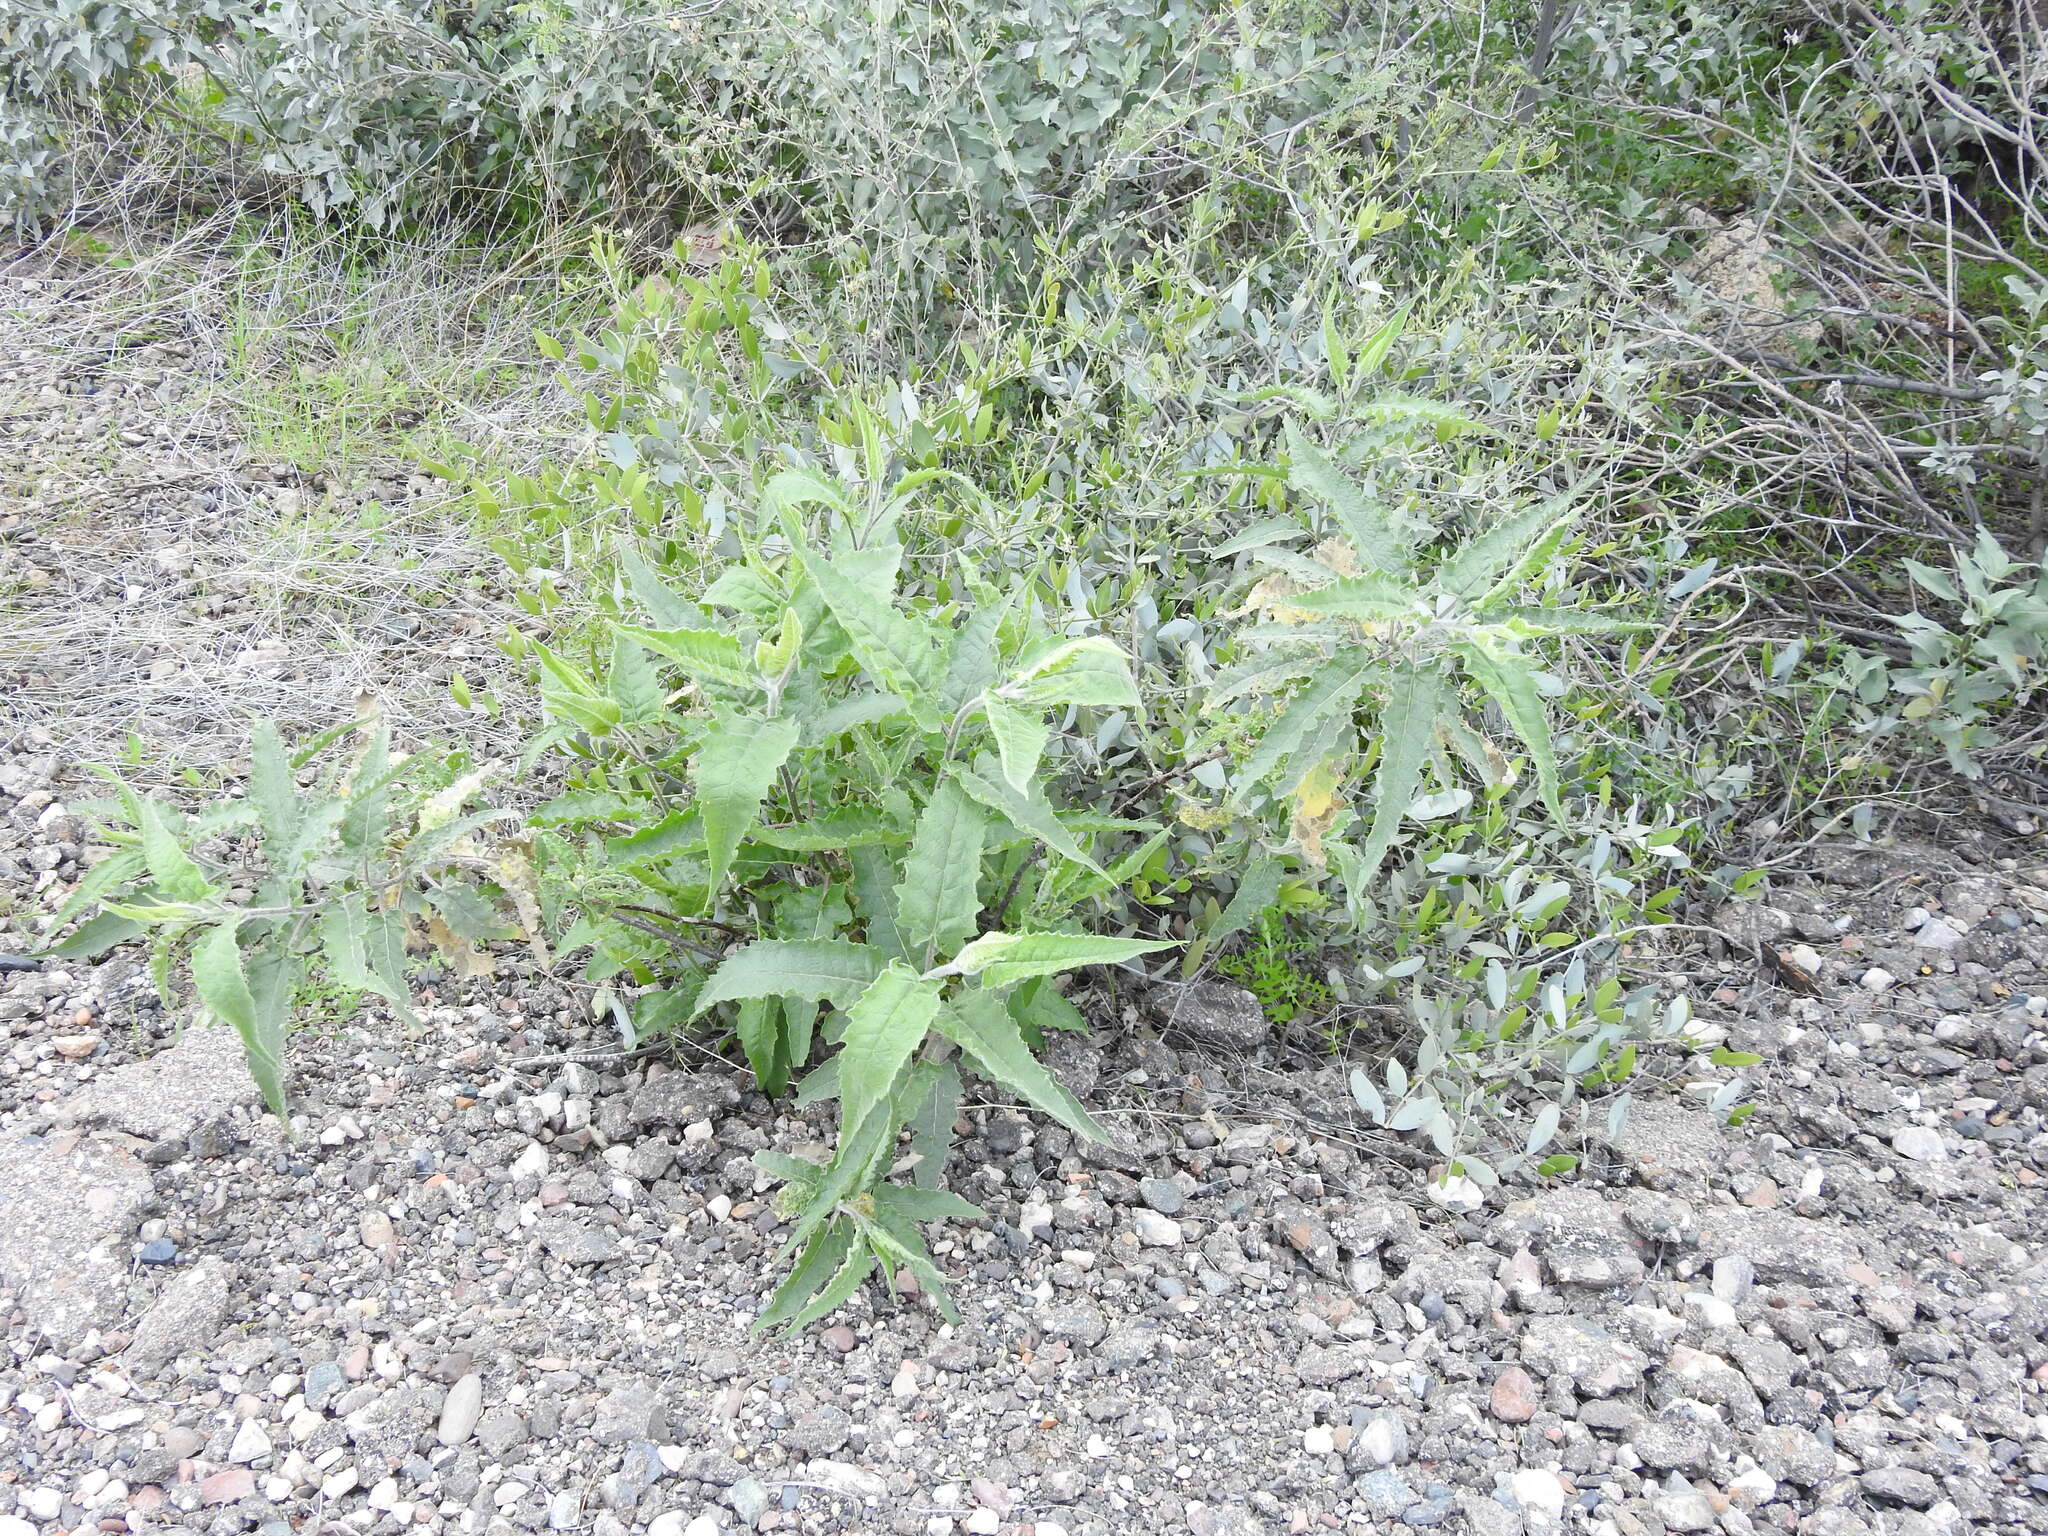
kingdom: Plantae
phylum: Tracheophyta
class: Magnoliopsida
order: Asterales
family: Asteraceae
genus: Ambrosia
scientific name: Ambrosia ambrosioides
